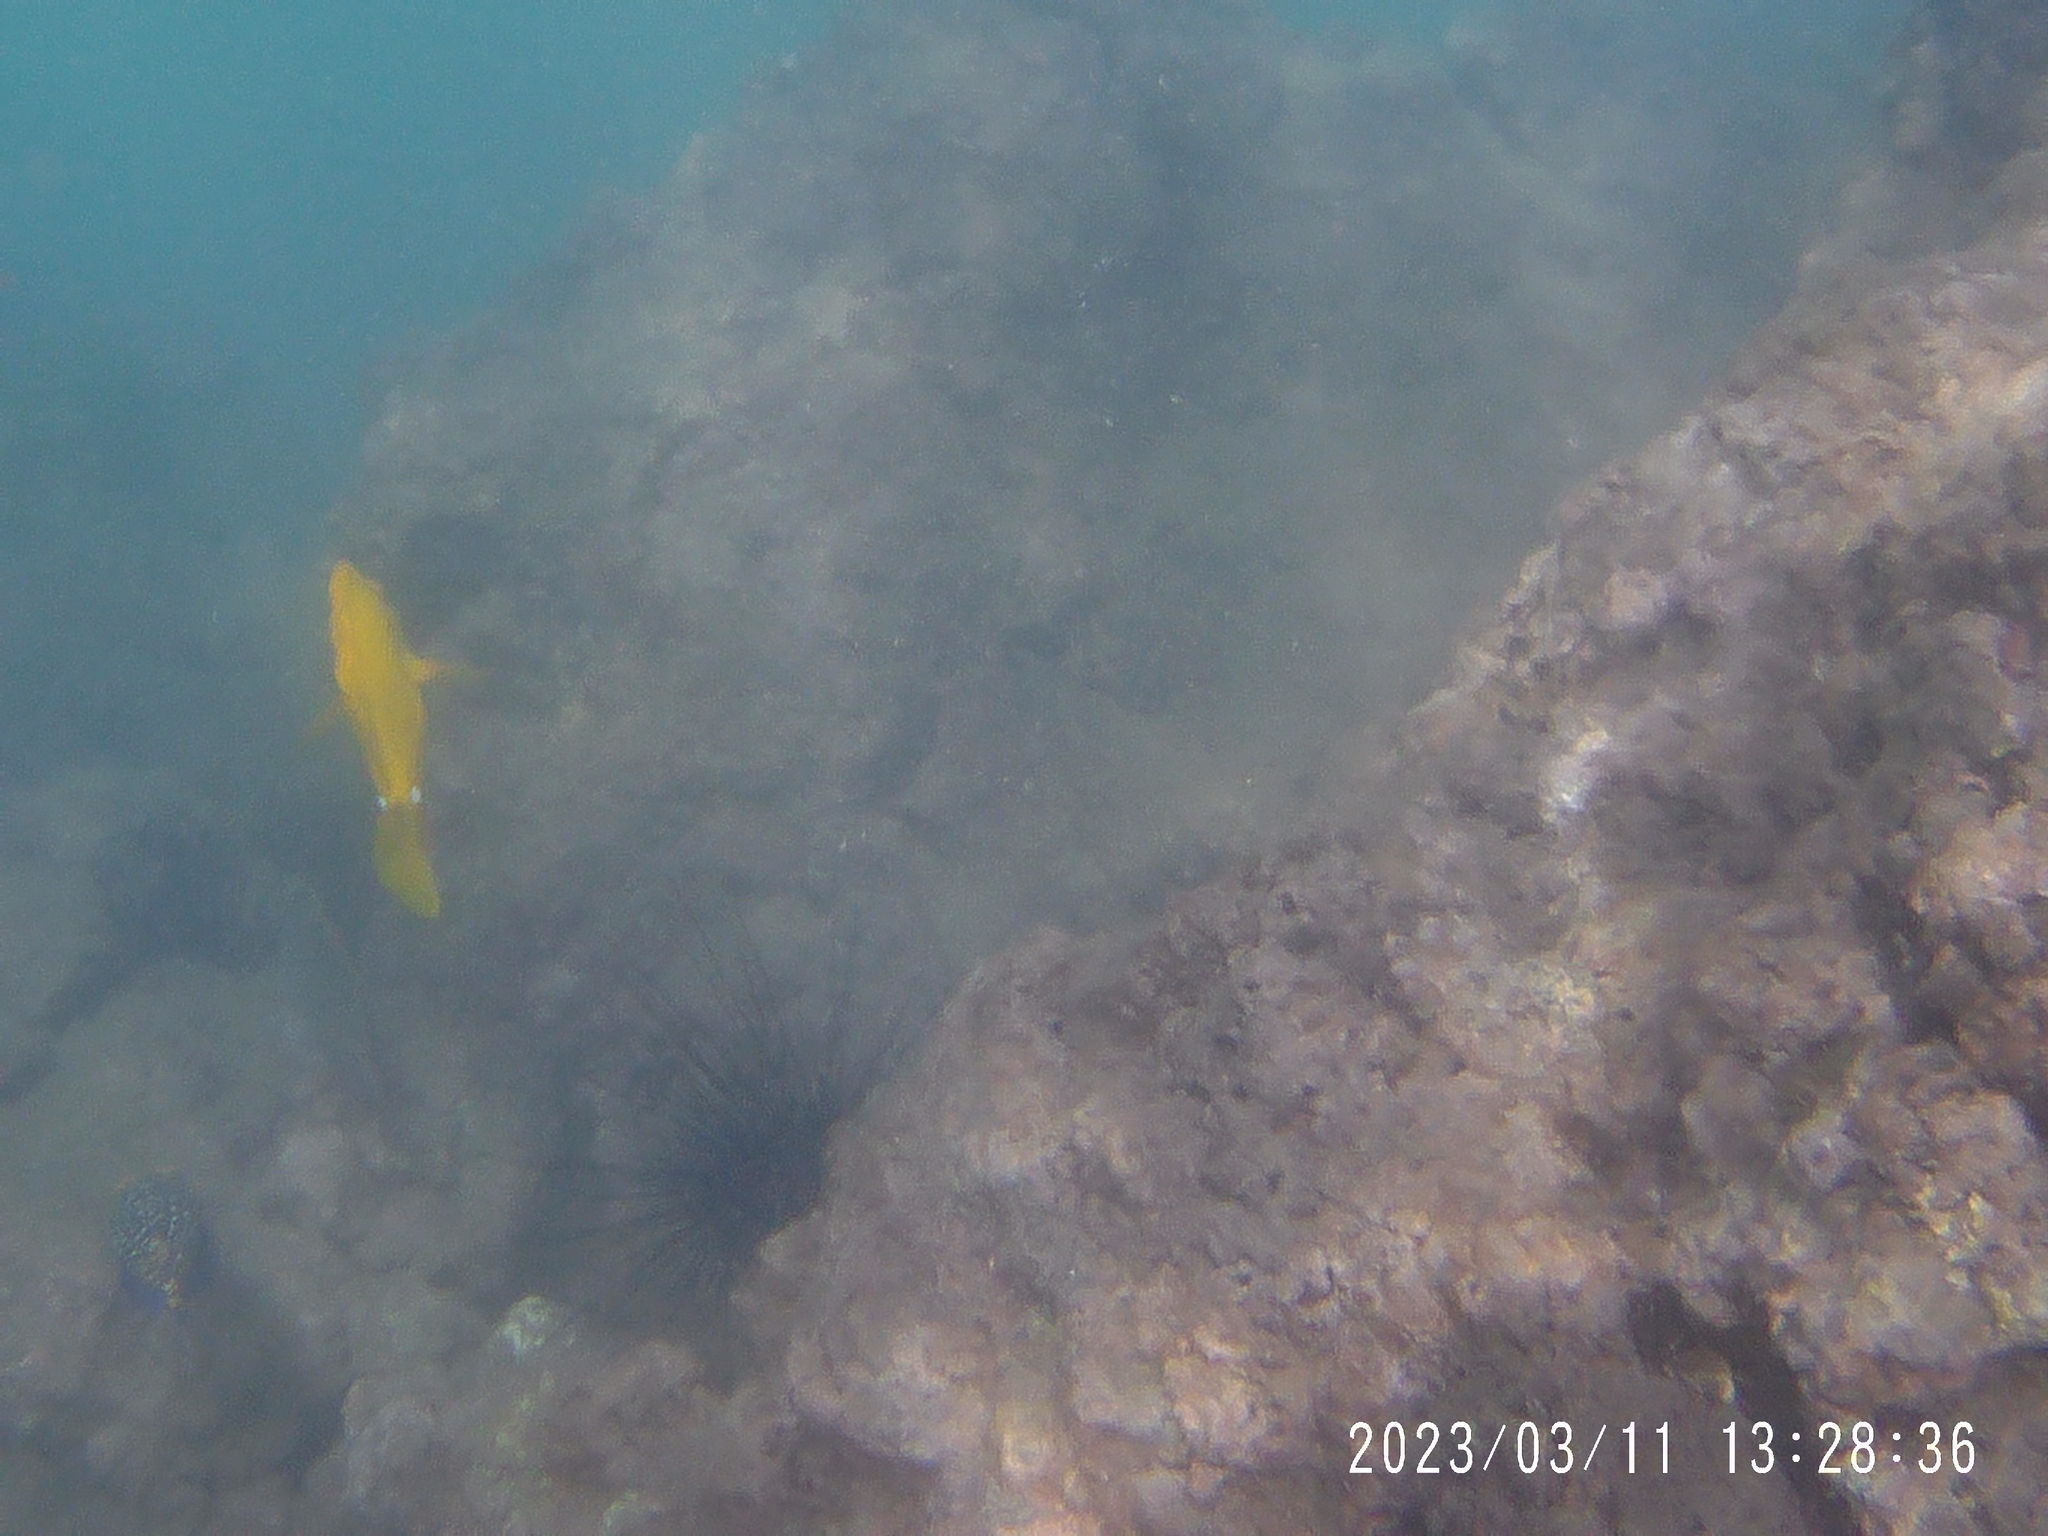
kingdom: Animalia
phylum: Chordata
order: Perciformes
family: Acanthuridae
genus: Zebrasoma
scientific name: Zebrasoma flavescens
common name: Yellow tang
